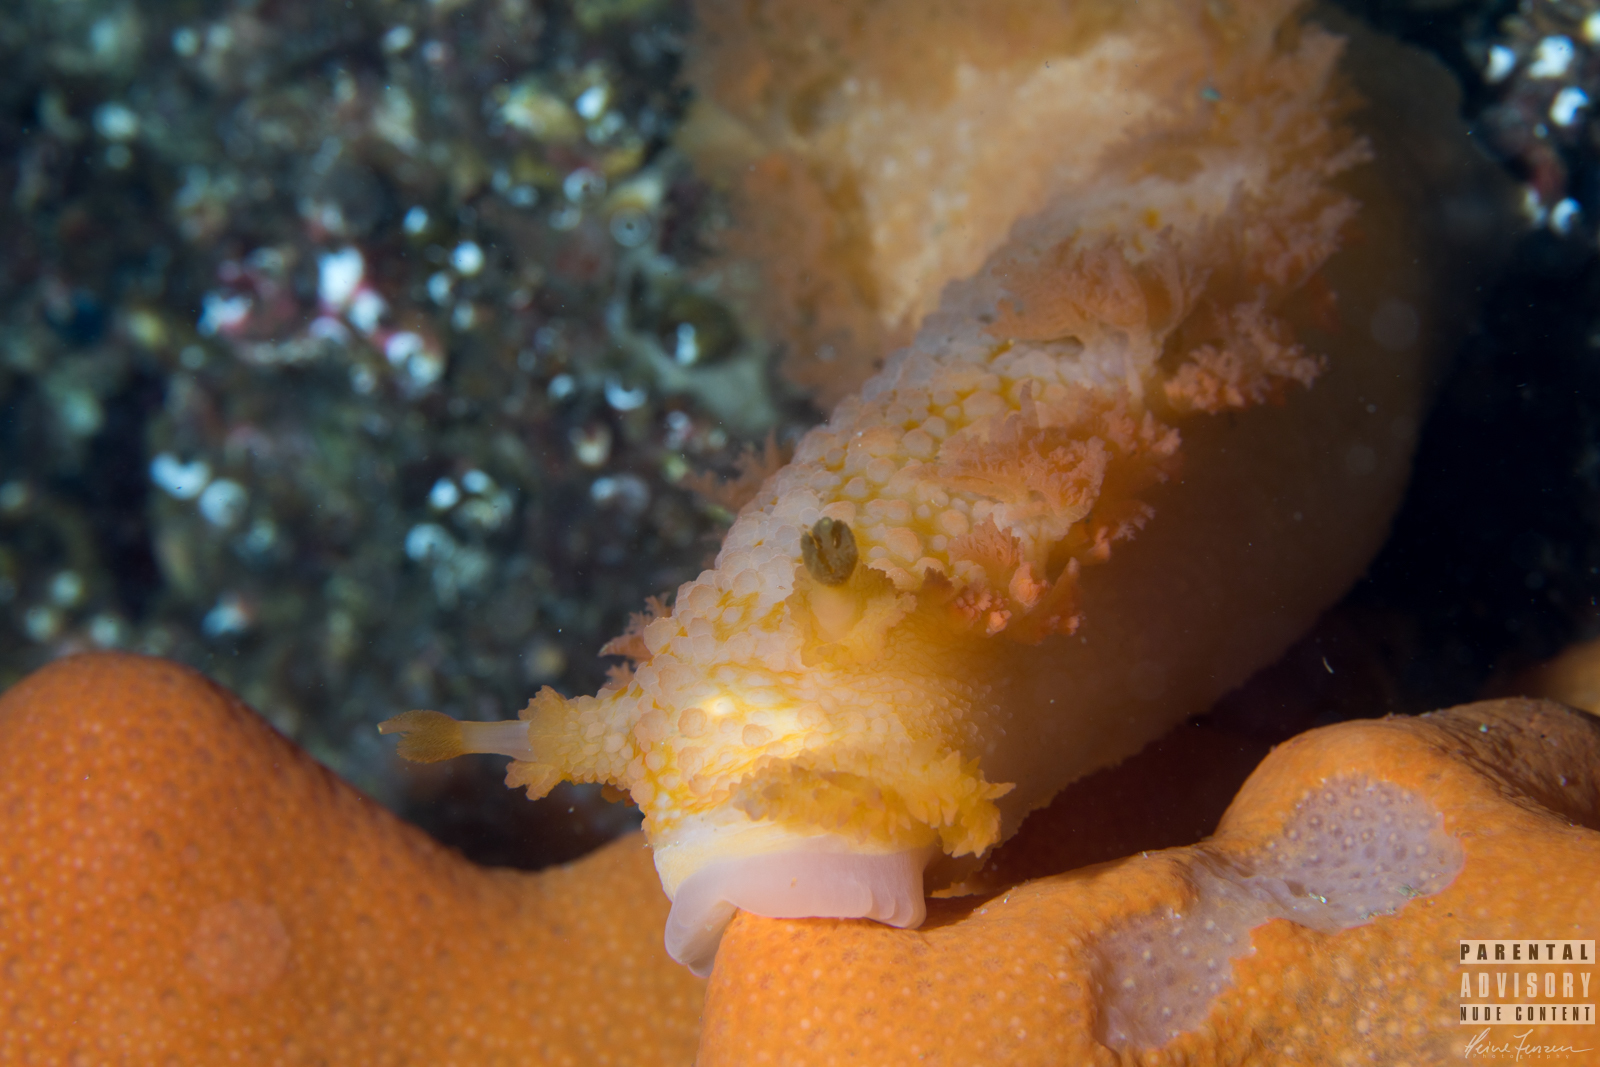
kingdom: Animalia
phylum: Mollusca
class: Gastropoda
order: Nudibranchia
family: Tritoniidae
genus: Tritonia
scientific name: Tritonia hombergii
